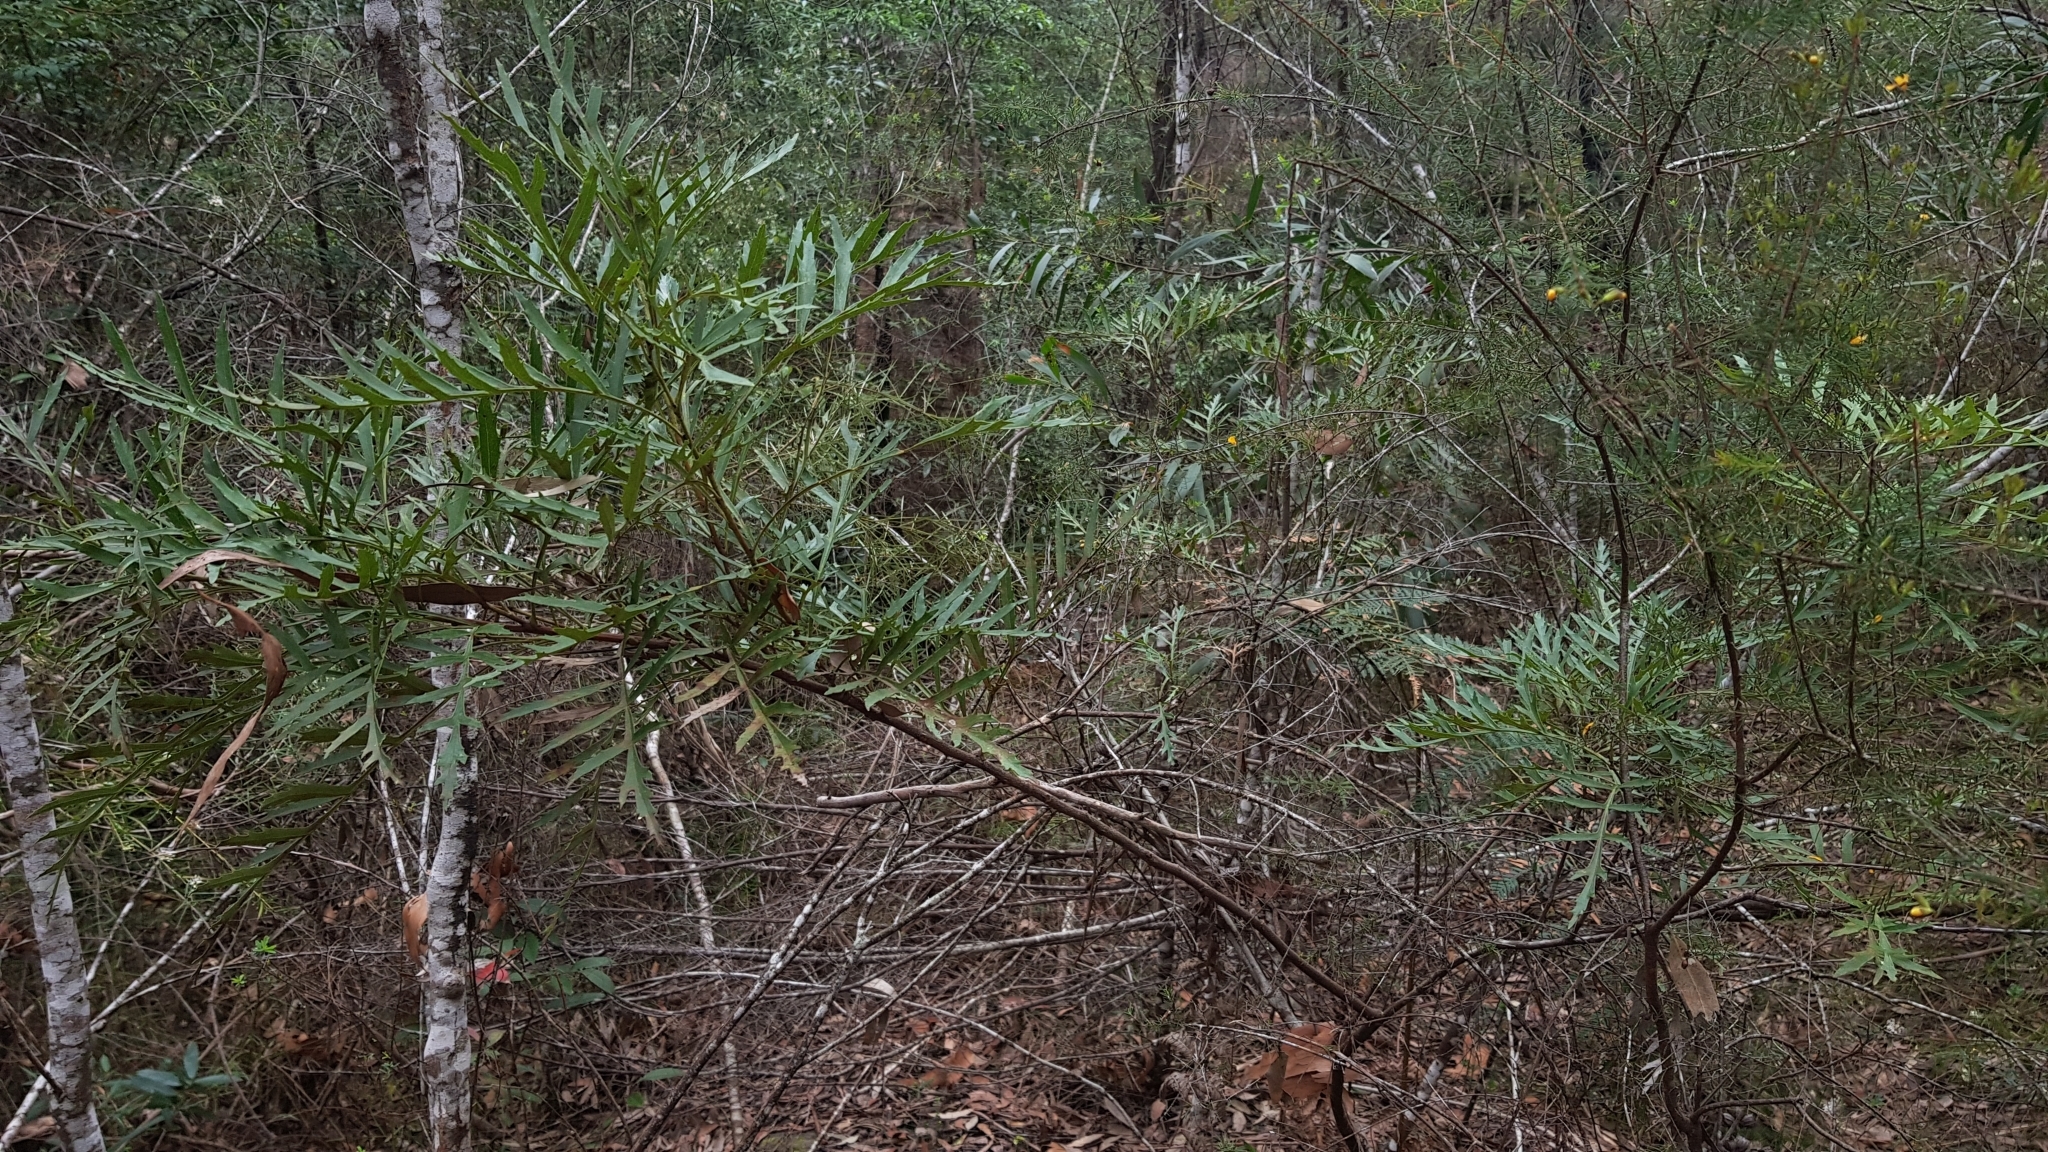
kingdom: Plantae
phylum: Tracheophyta
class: Magnoliopsida
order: Proteales
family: Proteaceae
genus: Lomatia
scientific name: Lomatia silaifolia
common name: Crinklebush
